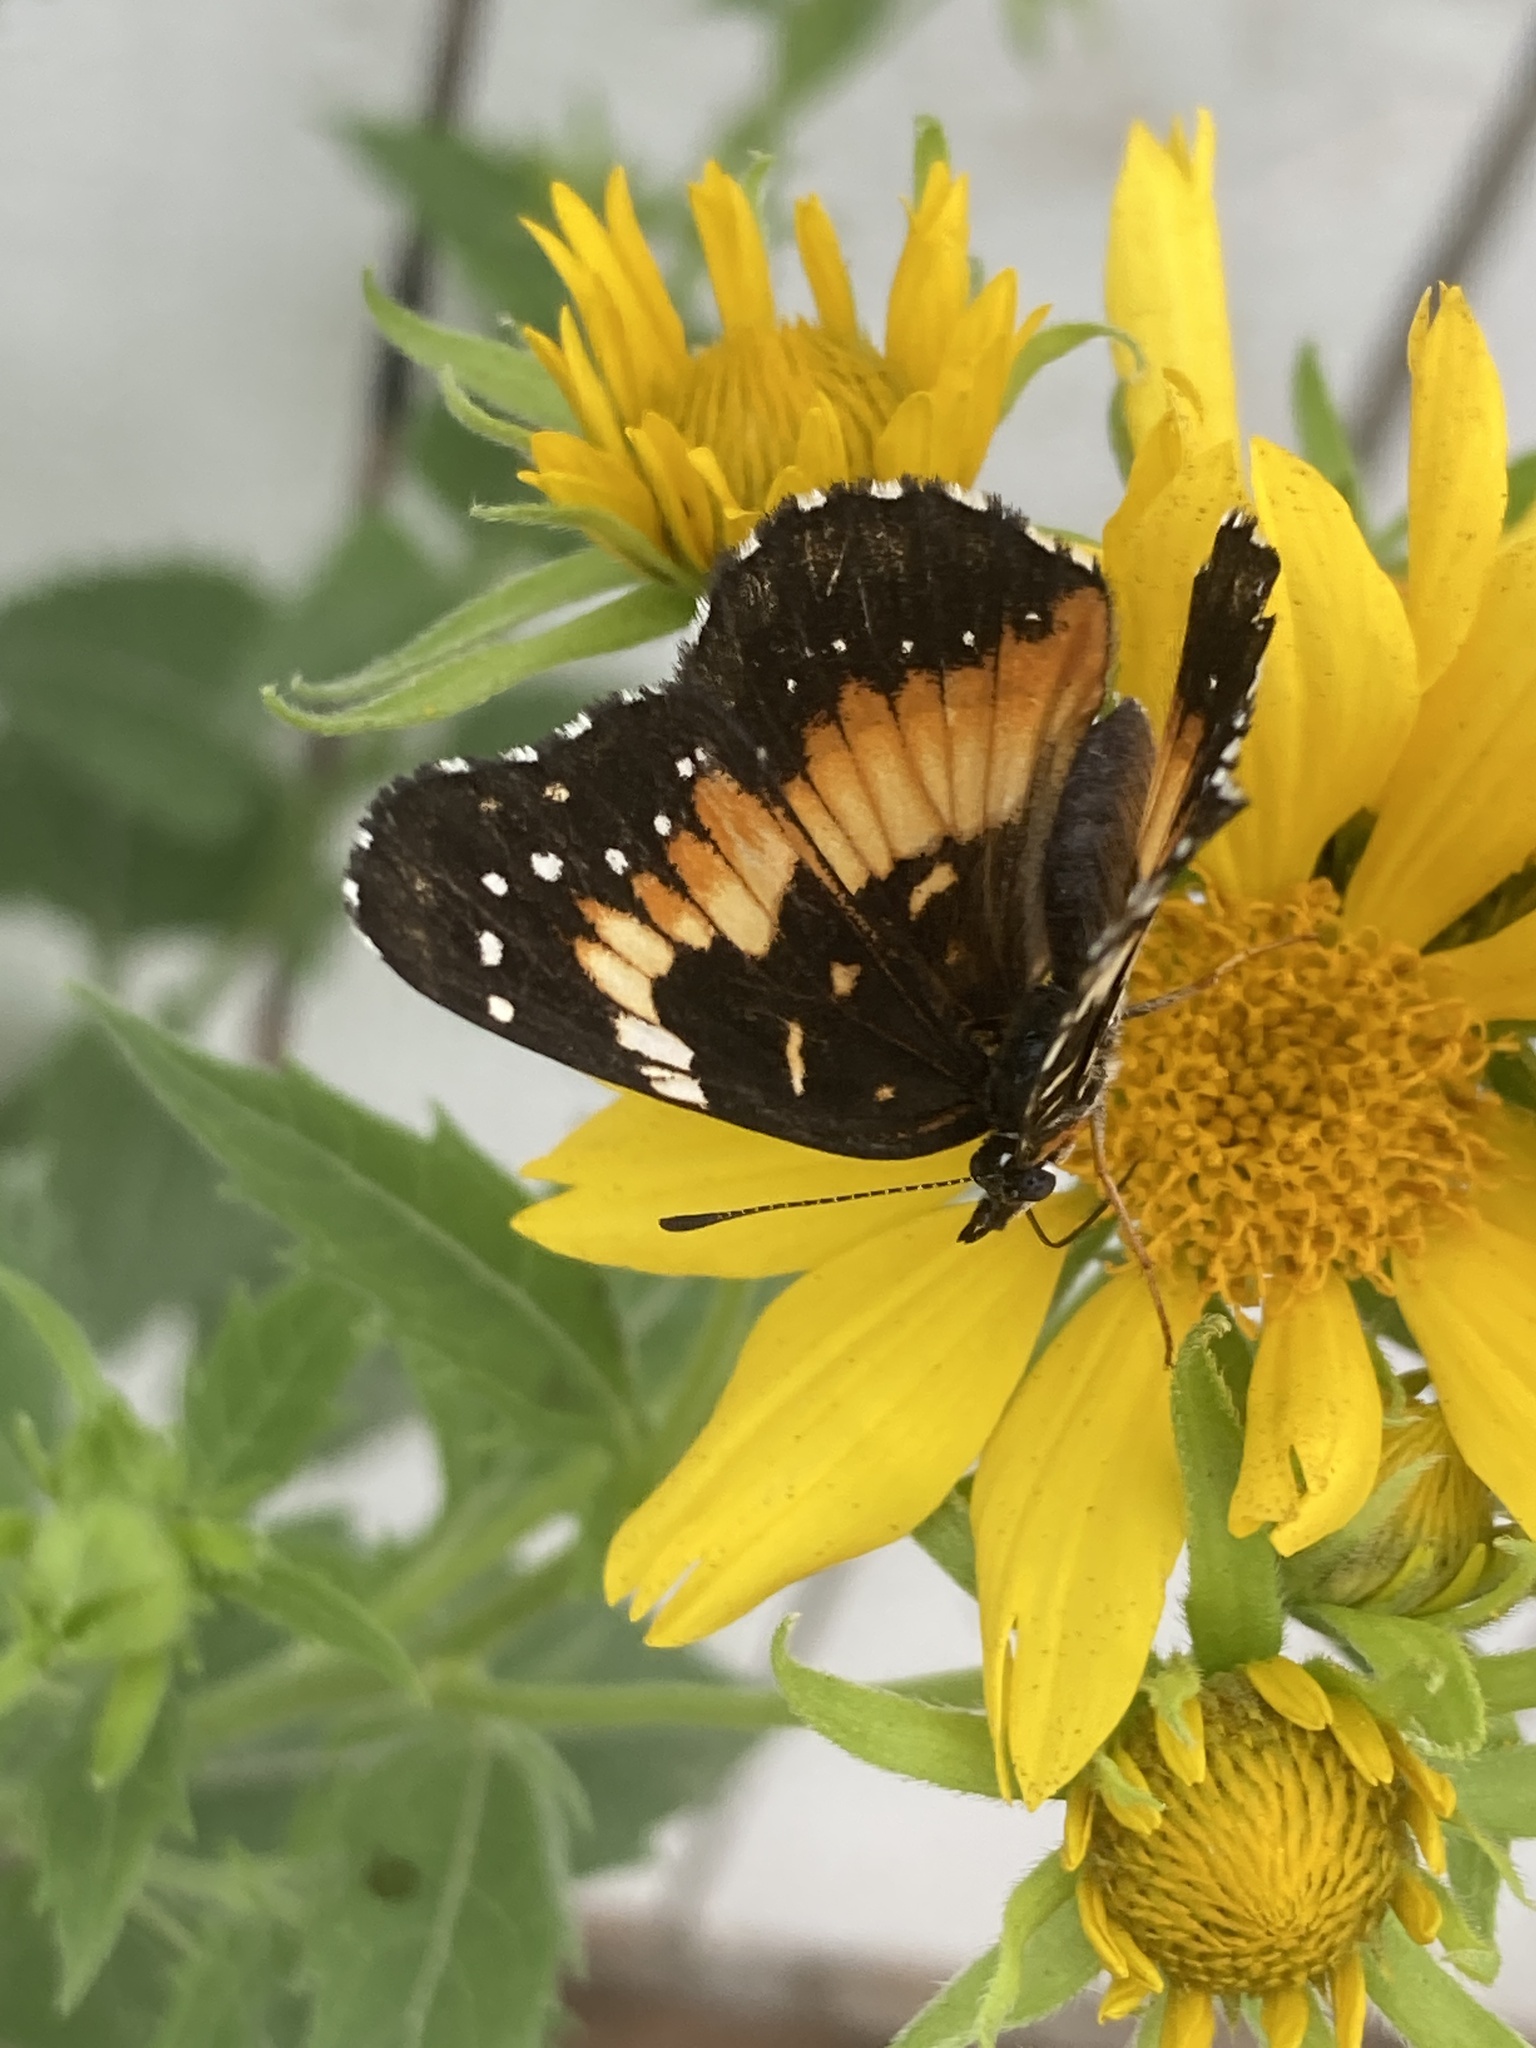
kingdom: Animalia
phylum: Arthropoda
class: Insecta
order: Lepidoptera
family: Nymphalidae
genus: Chlosyne
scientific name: Chlosyne lacinia
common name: Bordered patch
